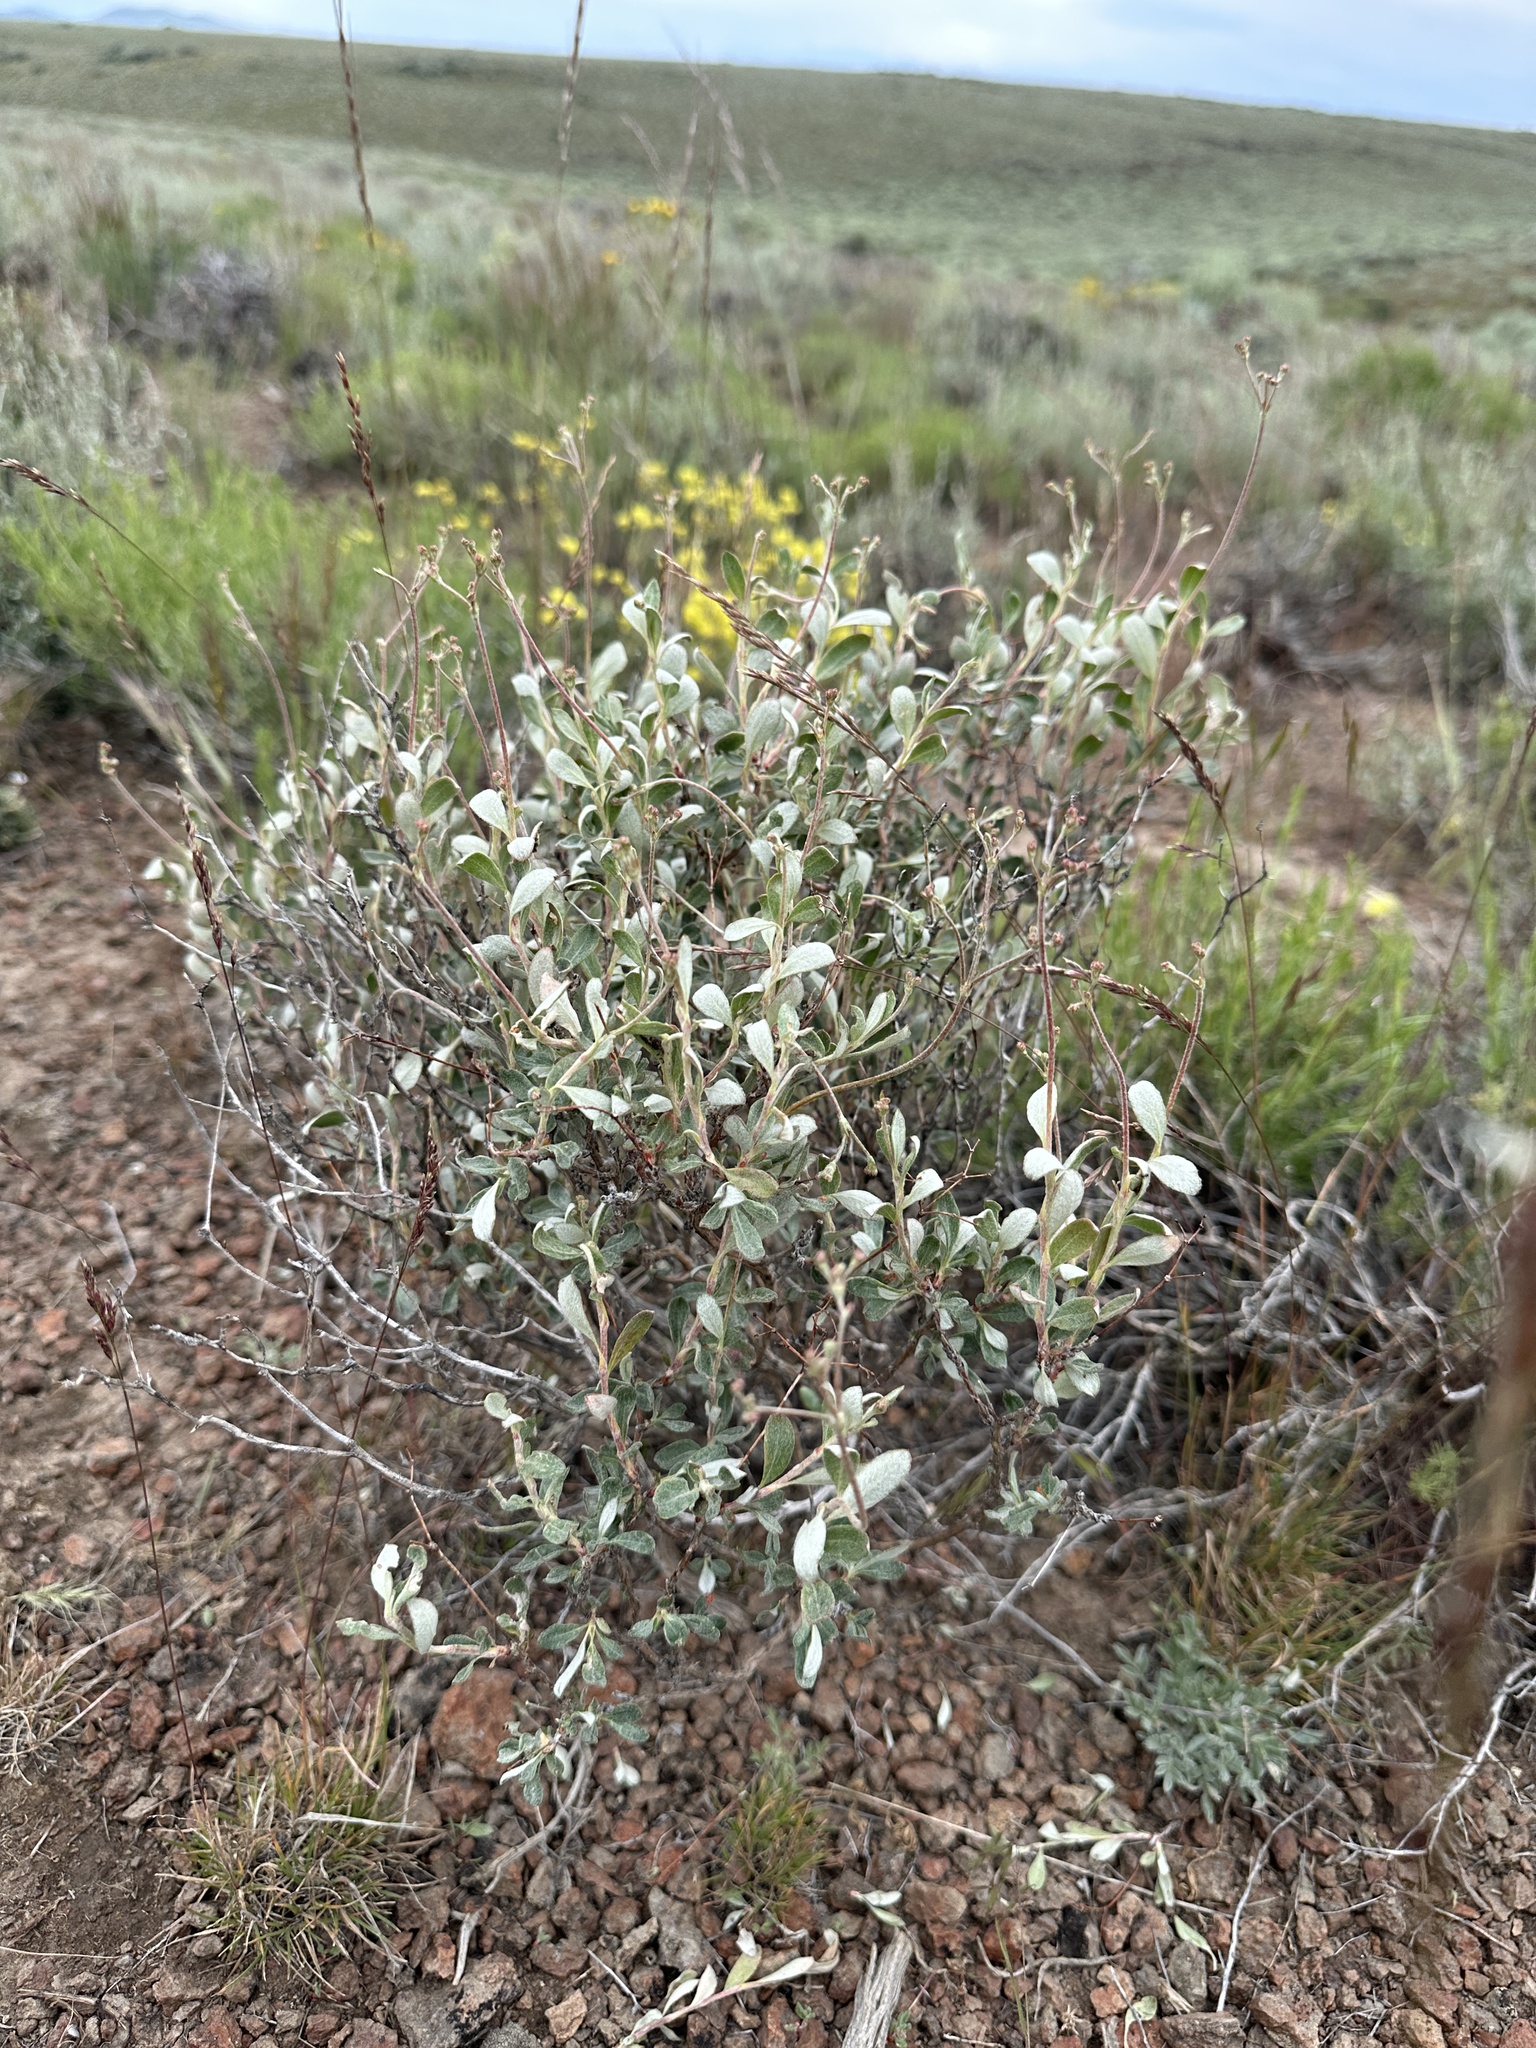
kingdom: Plantae
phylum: Tracheophyta
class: Magnoliopsida
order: Caryophyllales
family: Polygonaceae
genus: Eriogonum
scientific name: Eriogonum microtheca
